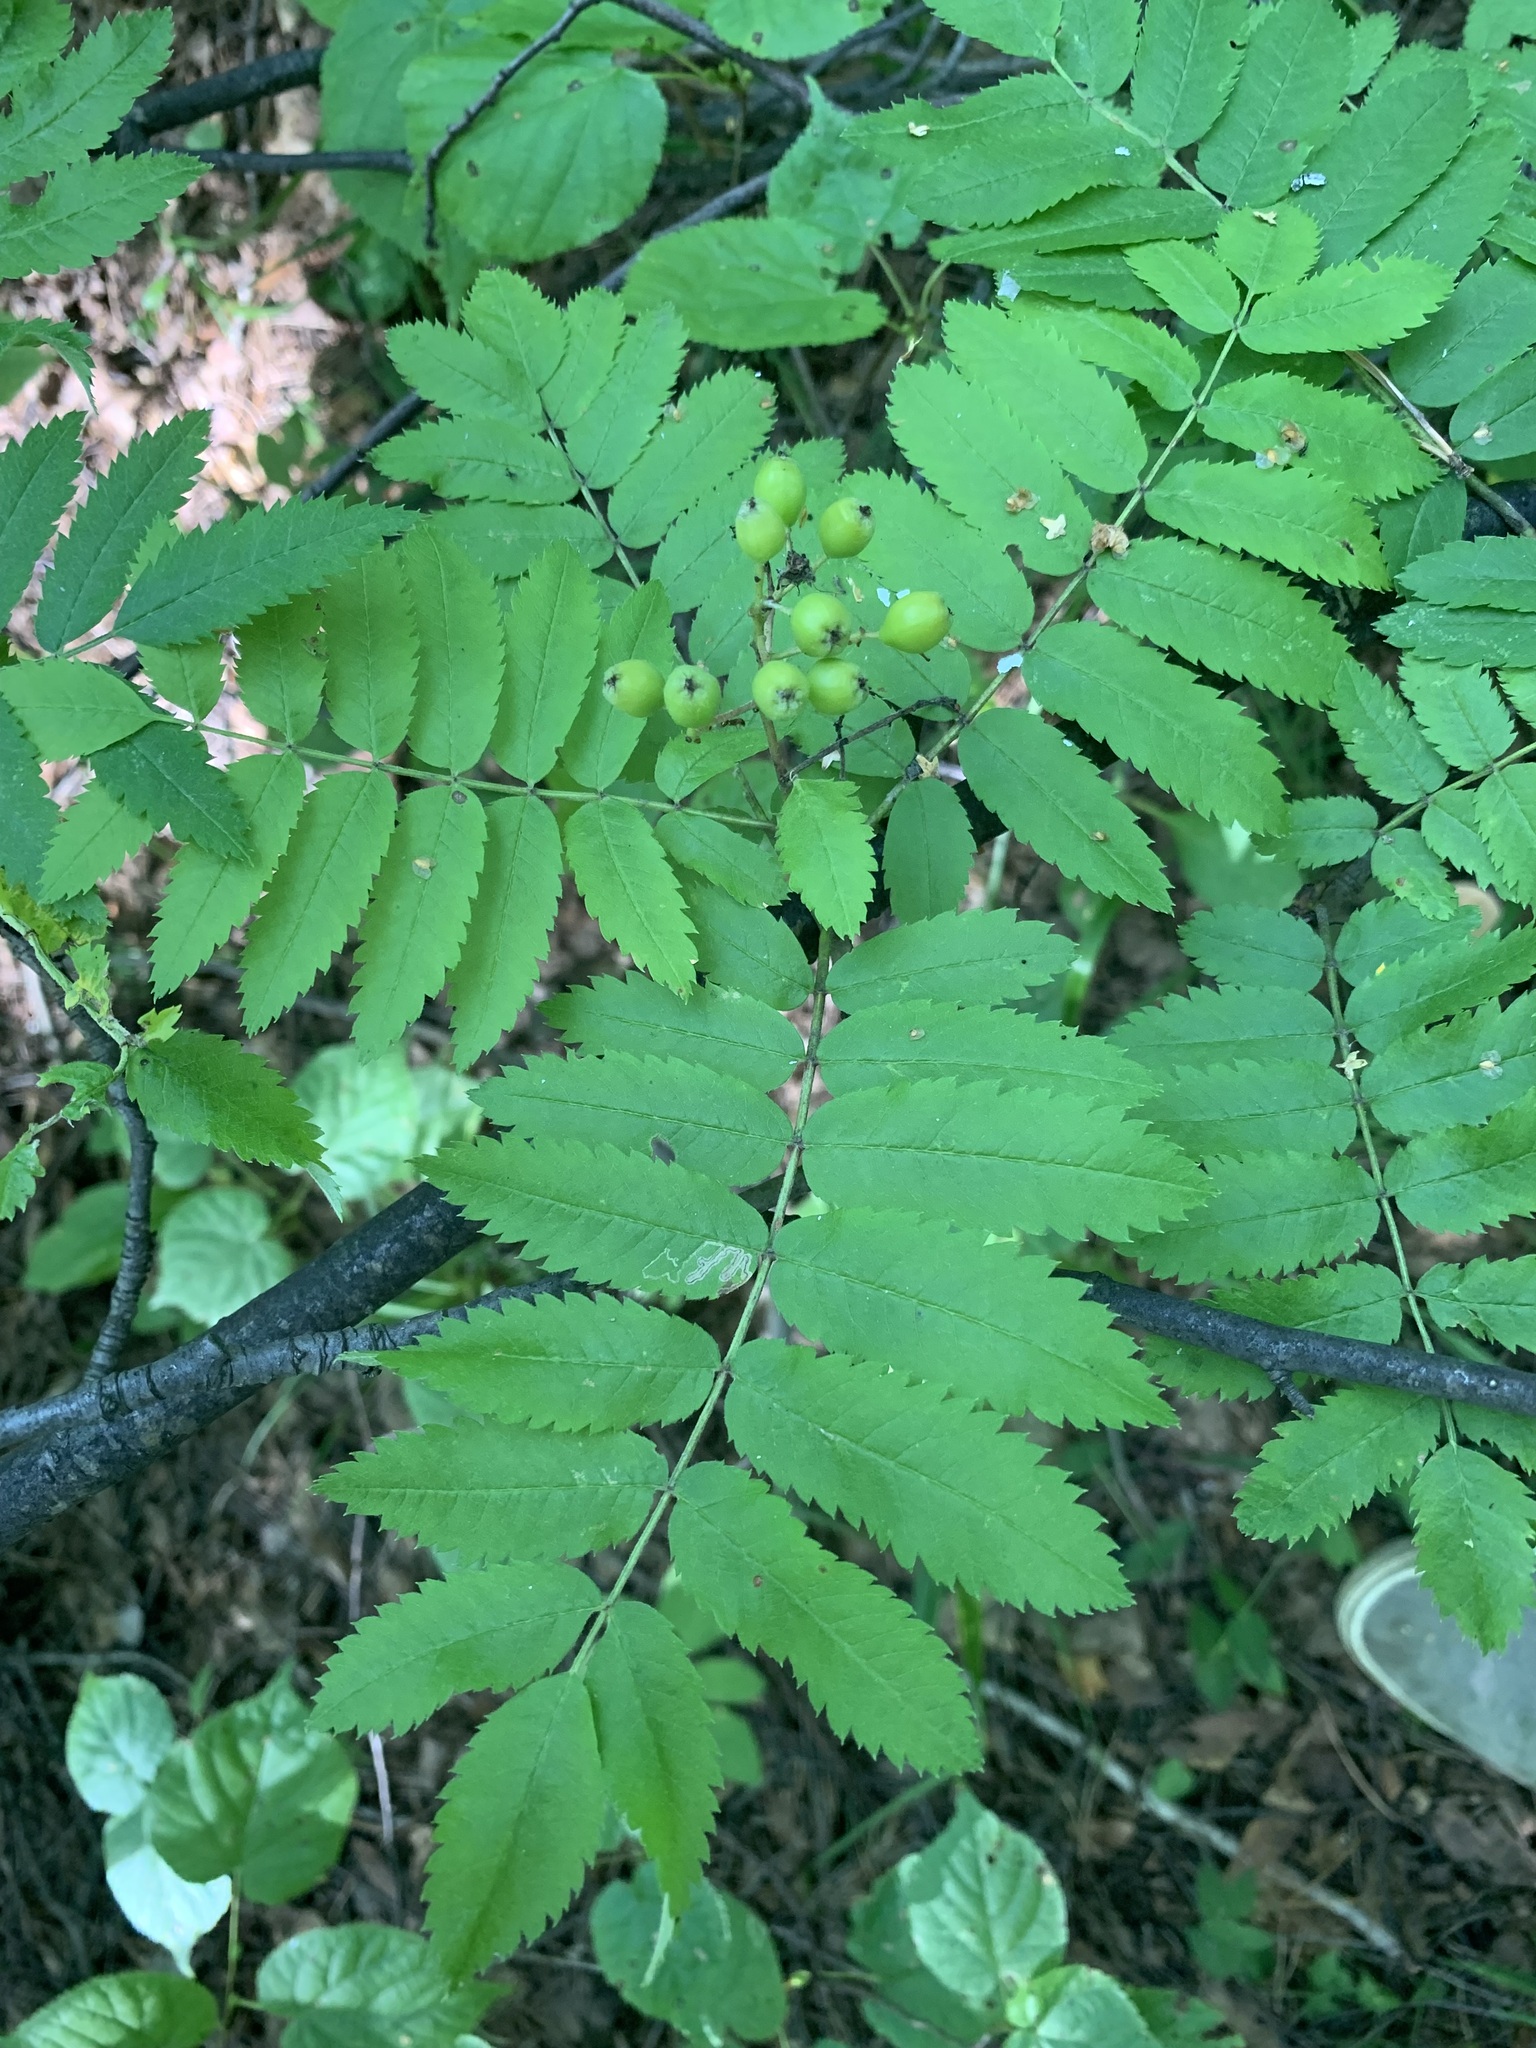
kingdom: Plantae
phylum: Tracheophyta
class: Magnoliopsida
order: Rosales
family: Rosaceae
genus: Sorbus
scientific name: Sorbus aucuparia
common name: Rowan
